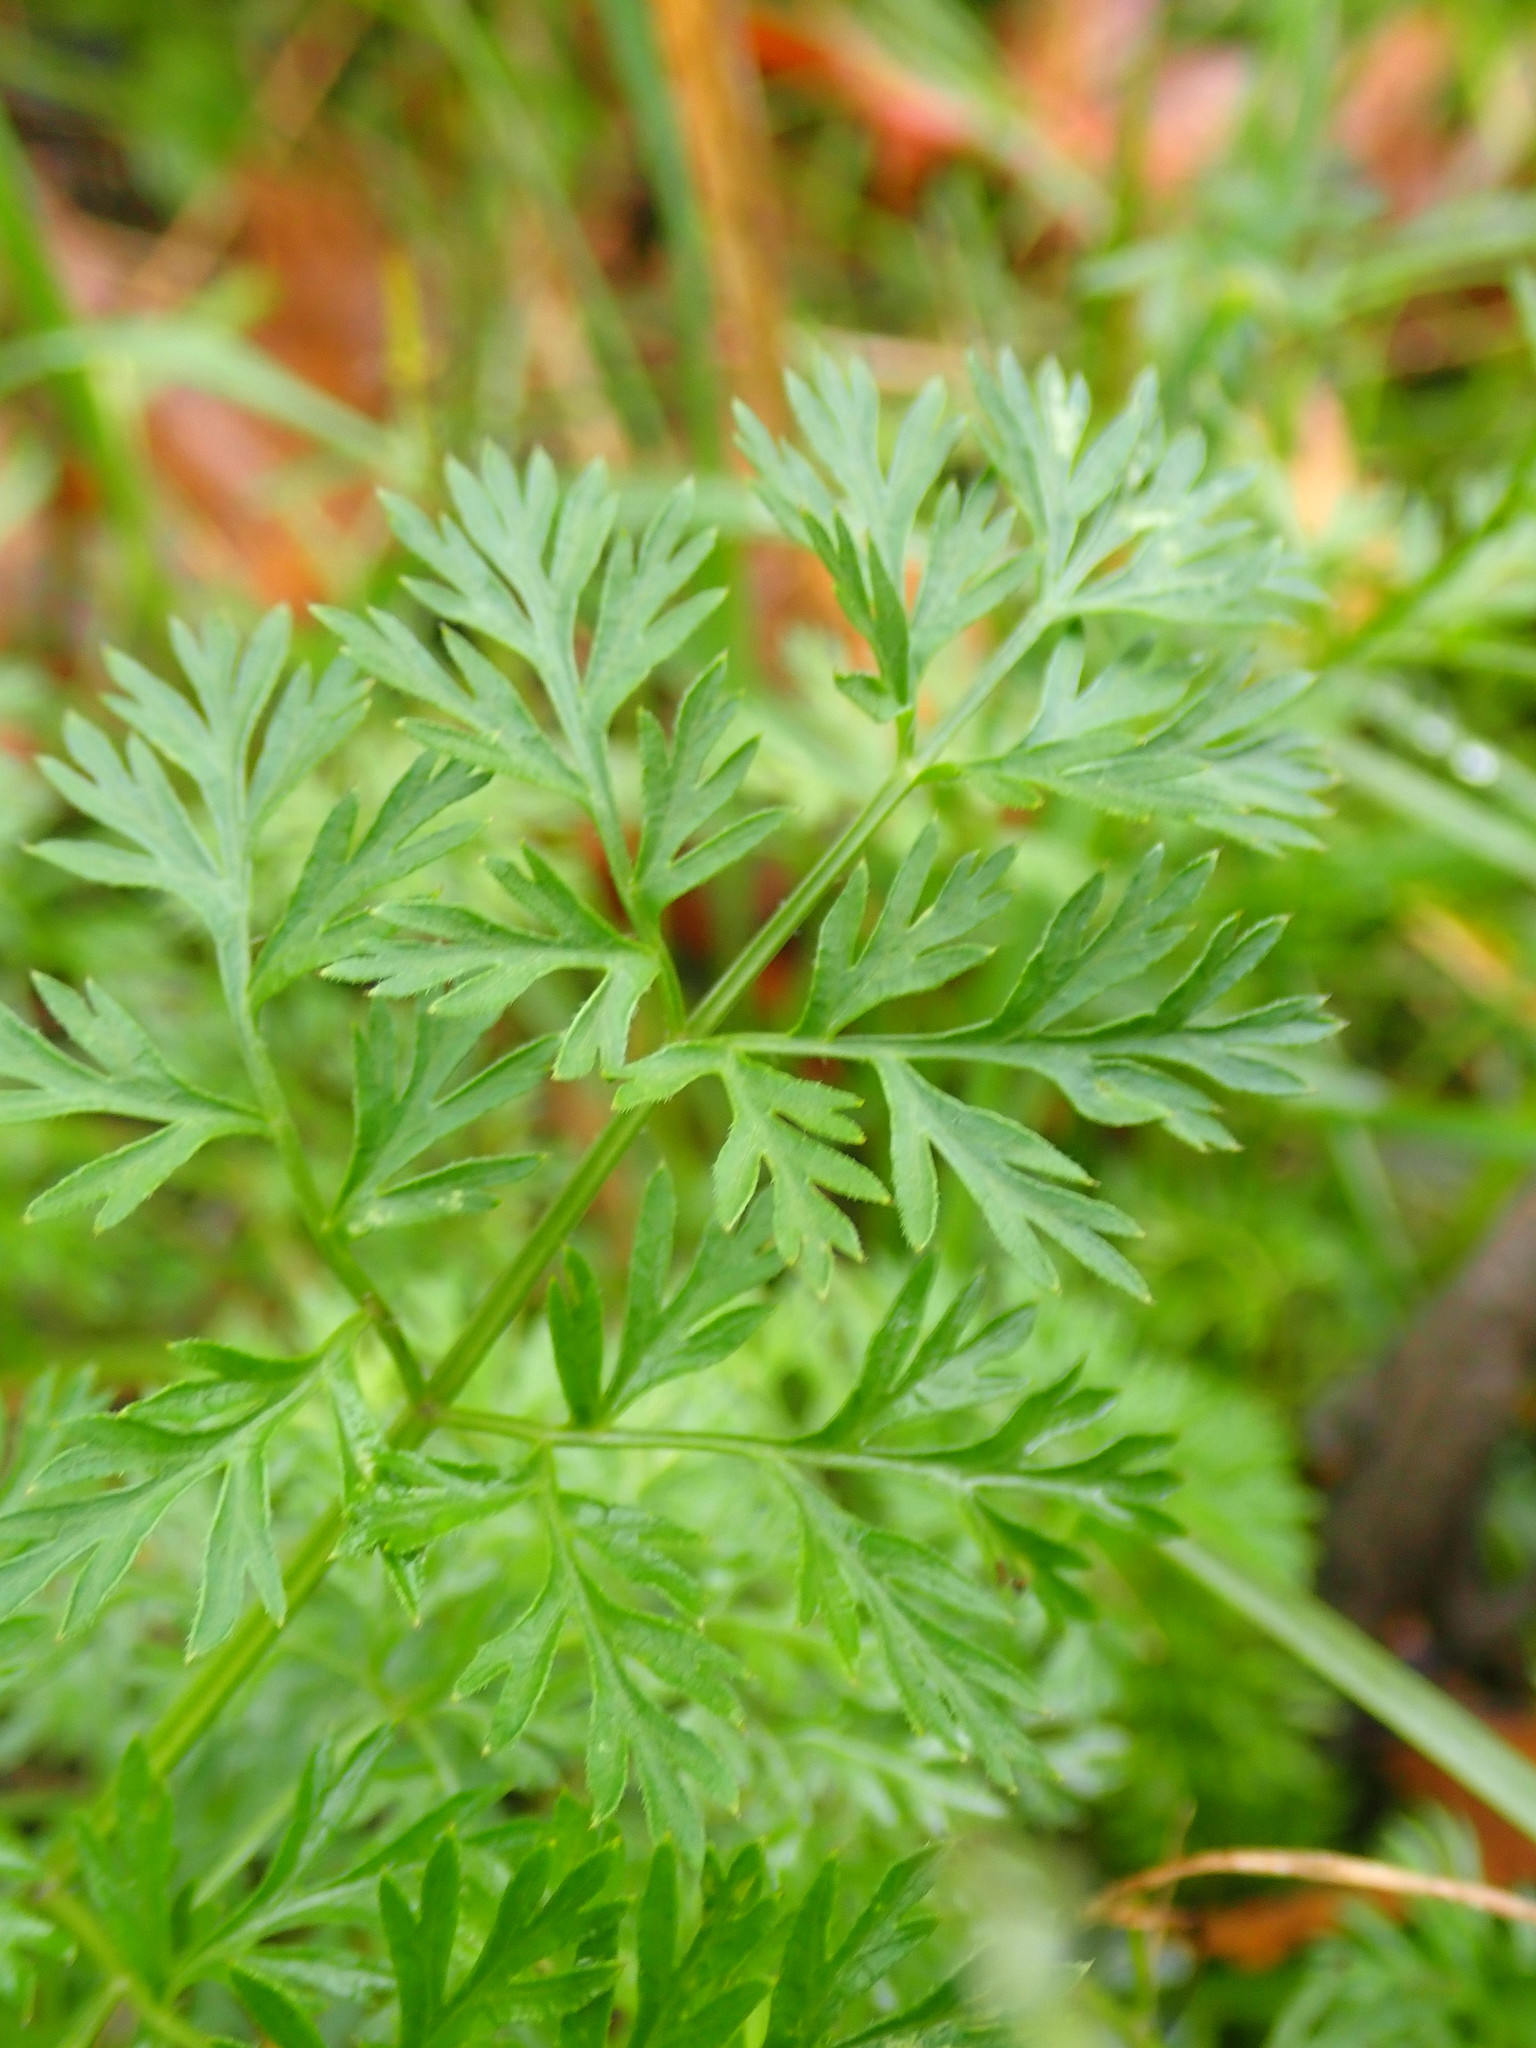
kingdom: Plantae
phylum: Tracheophyta
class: Magnoliopsida
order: Apiales
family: Apiaceae
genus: Daucus
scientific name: Daucus carota
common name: Wild carrot
